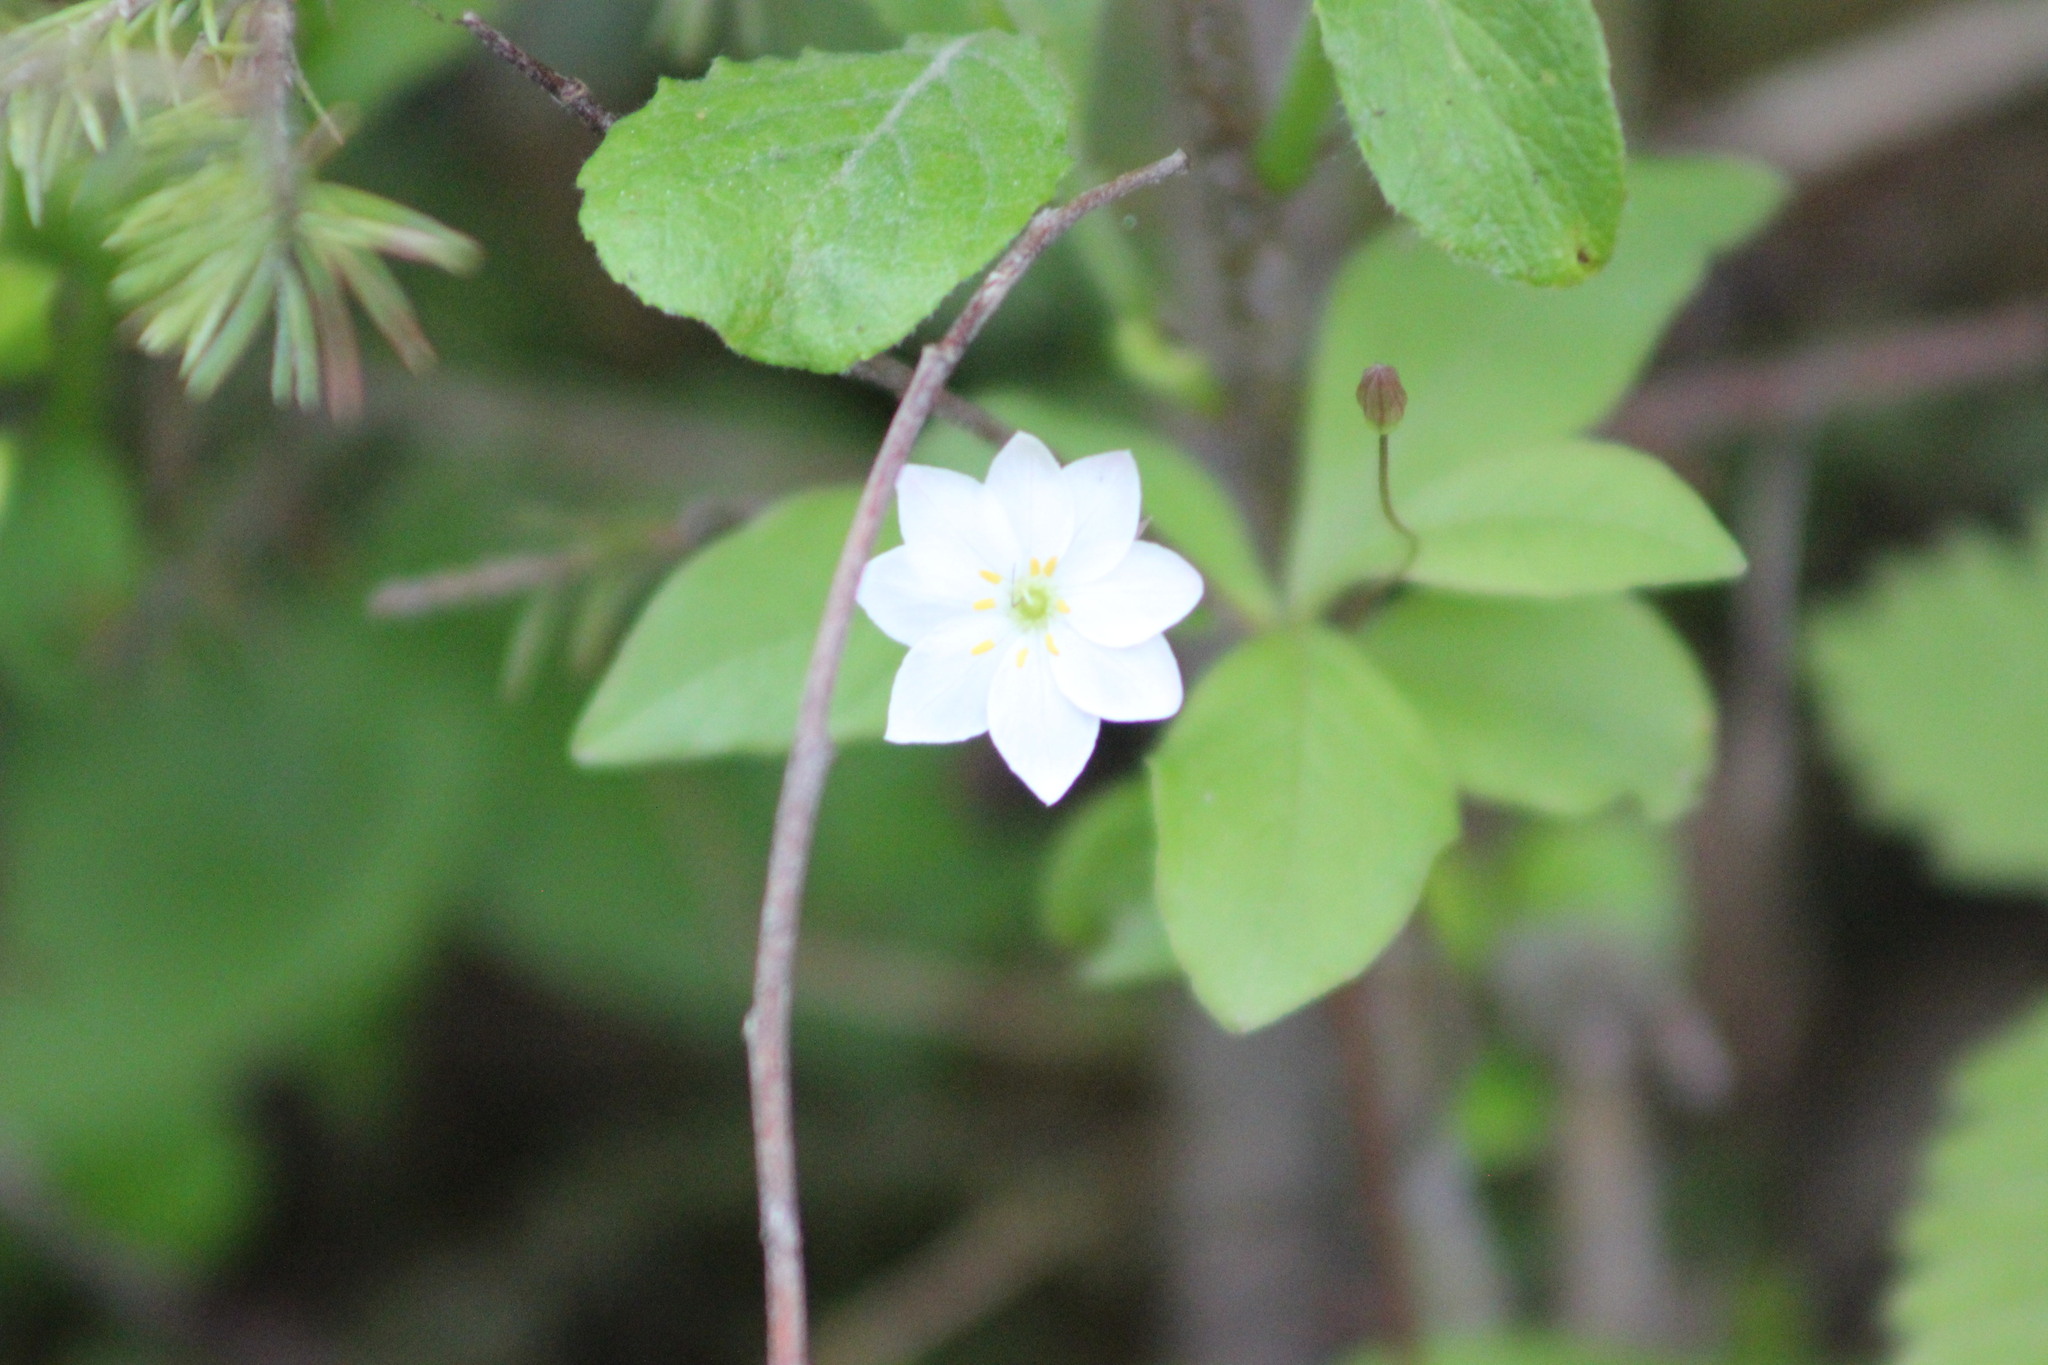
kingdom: Plantae
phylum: Tracheophyta
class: Magnoliopsida
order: Ericales
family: Primulaceae
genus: Lysimachia
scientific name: Lysimachia europaea
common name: Arctic starflower
